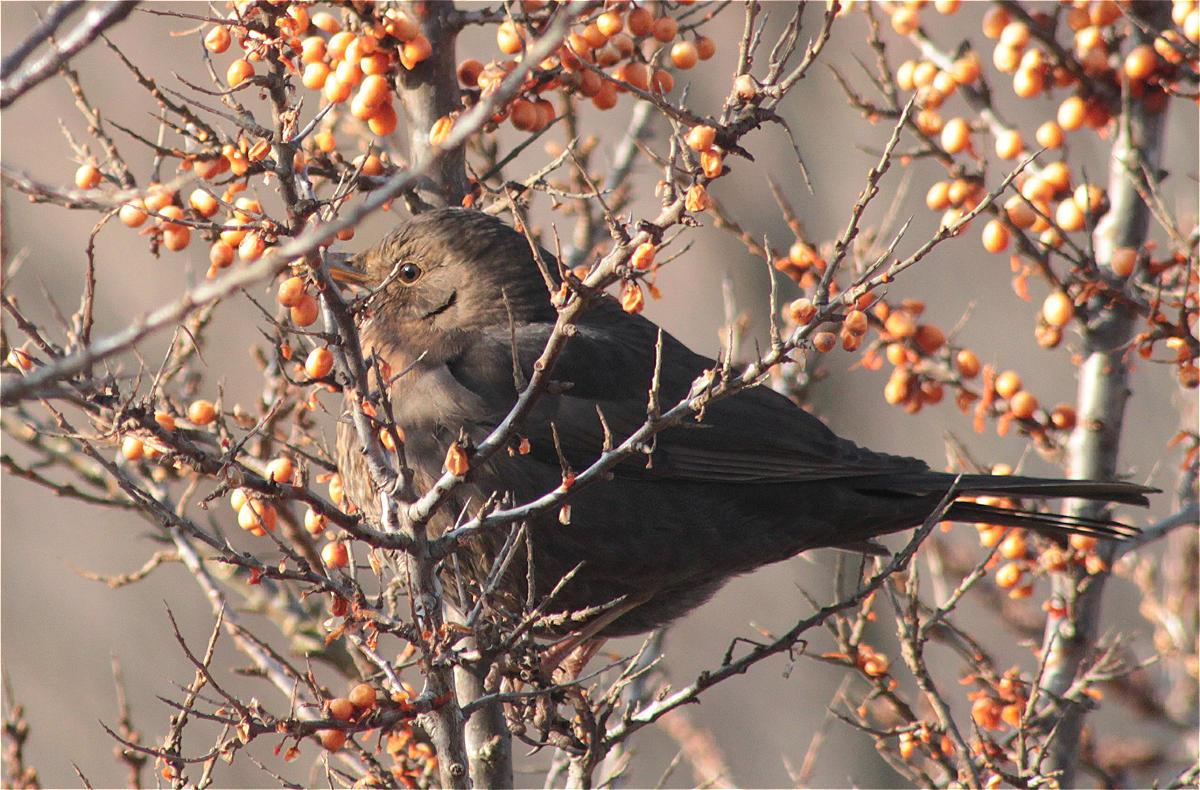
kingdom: Animalia
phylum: Chordata
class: Aves
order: Passeriformes
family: Turdidae
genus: Turdus
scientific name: Turdus merula
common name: Common blackbird
